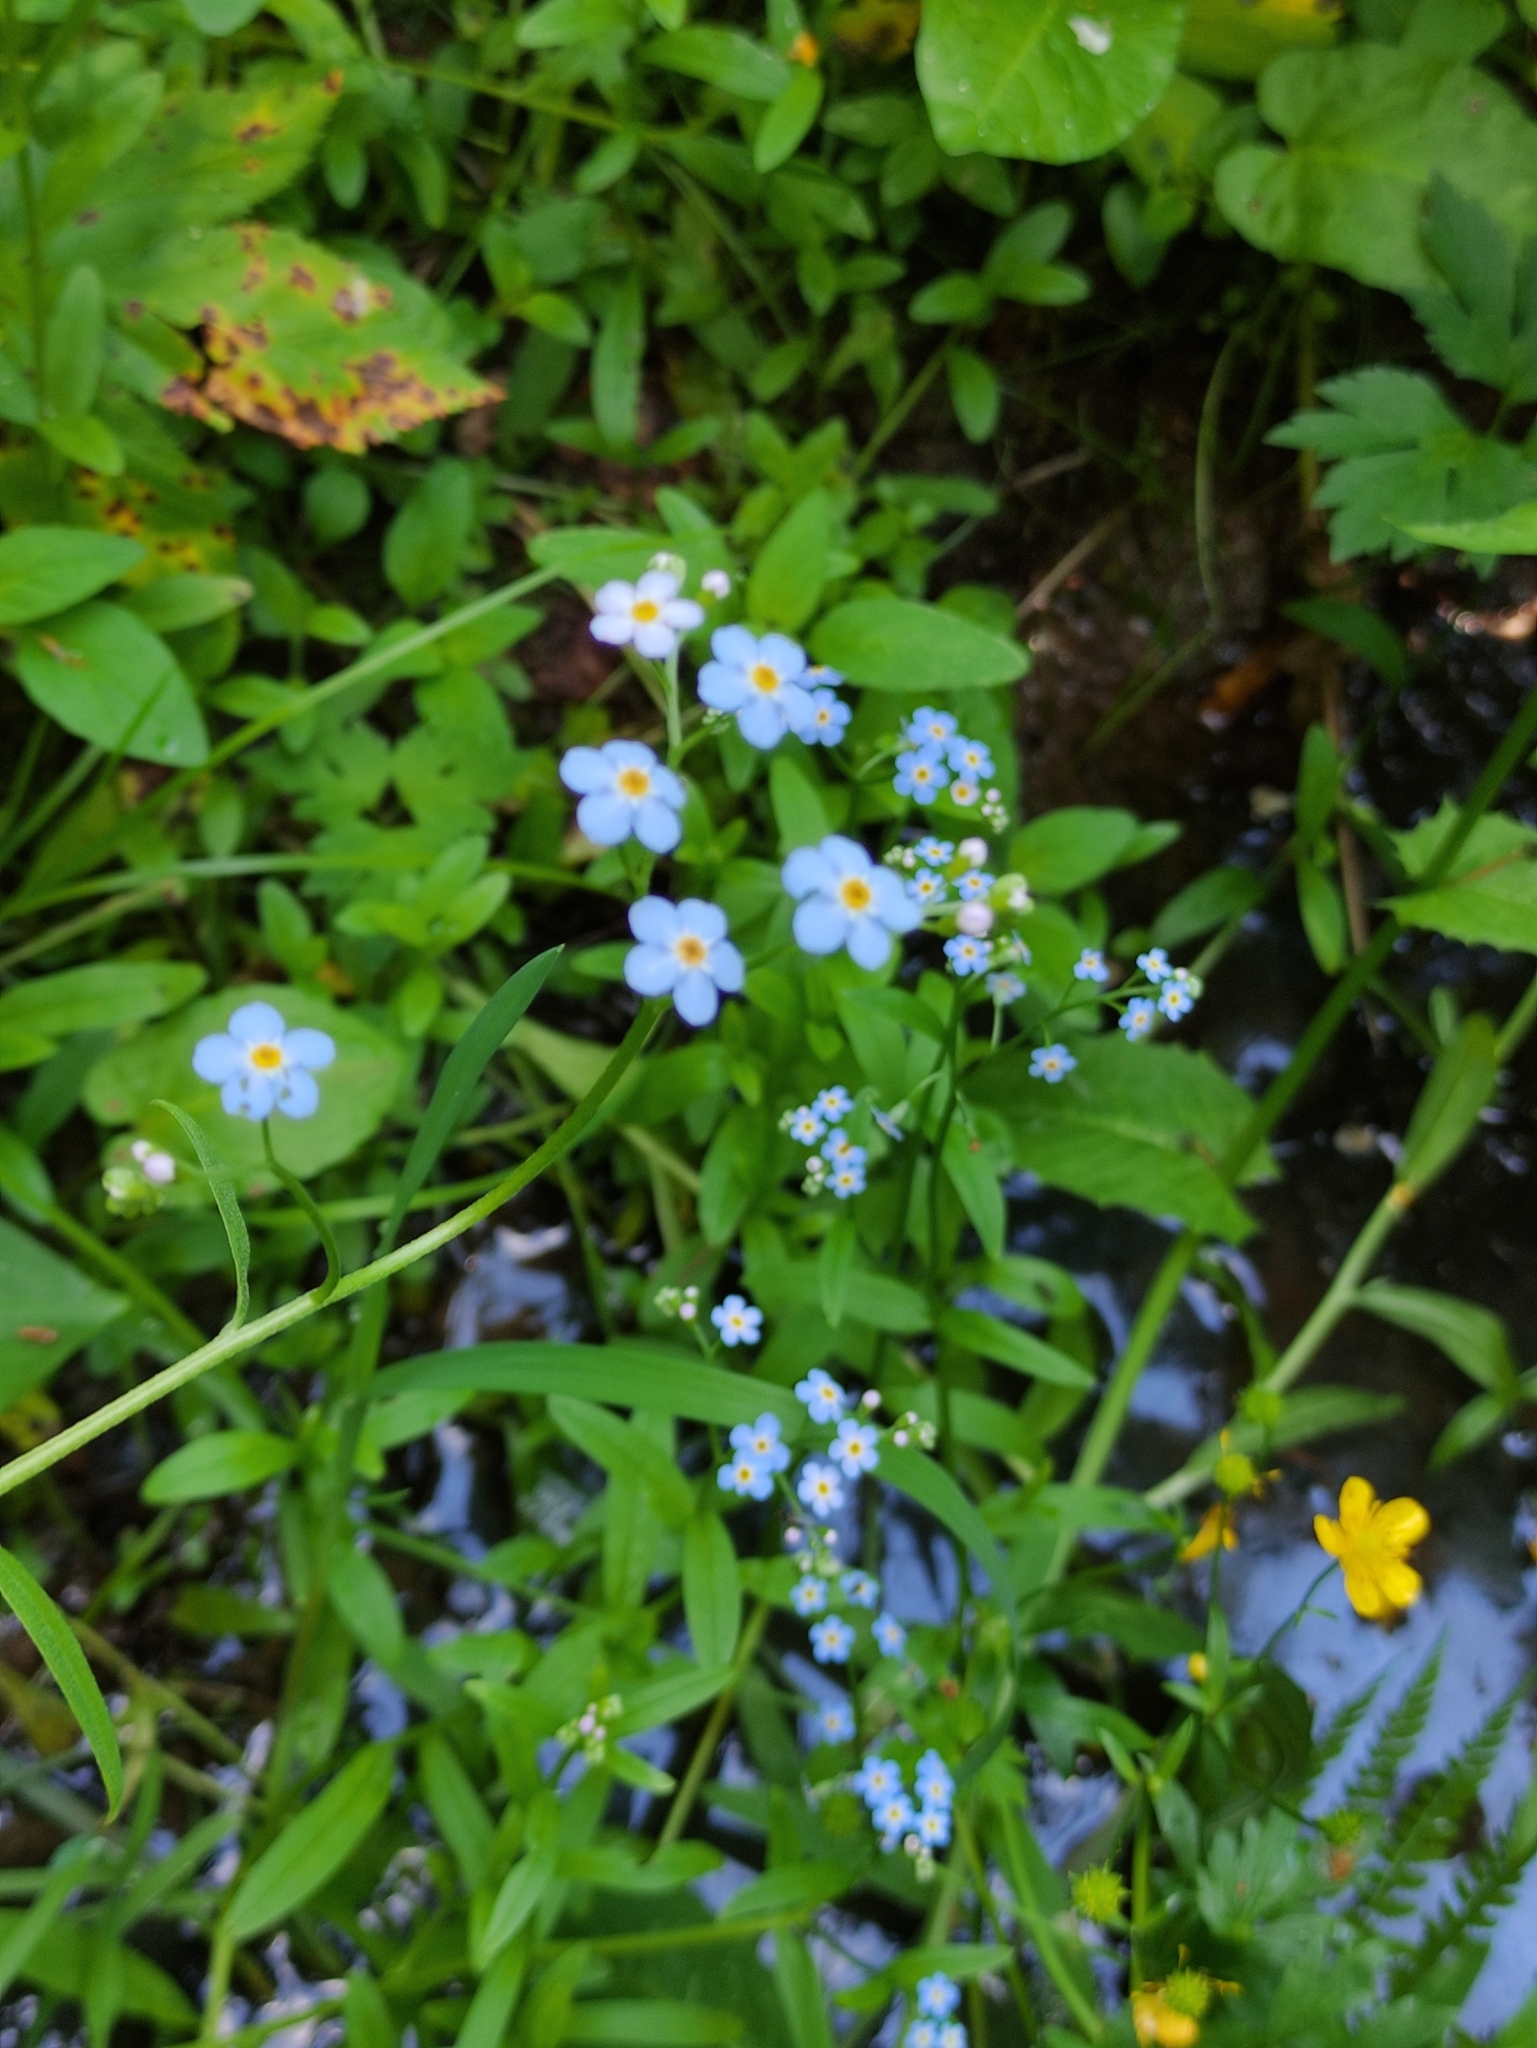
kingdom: Plantae
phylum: Tracheophyta
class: Magnoliopsida
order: Boraginales
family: Boraginaceae
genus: Myosotis
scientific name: Myosotis scorpioides
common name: Water forget-me-not
